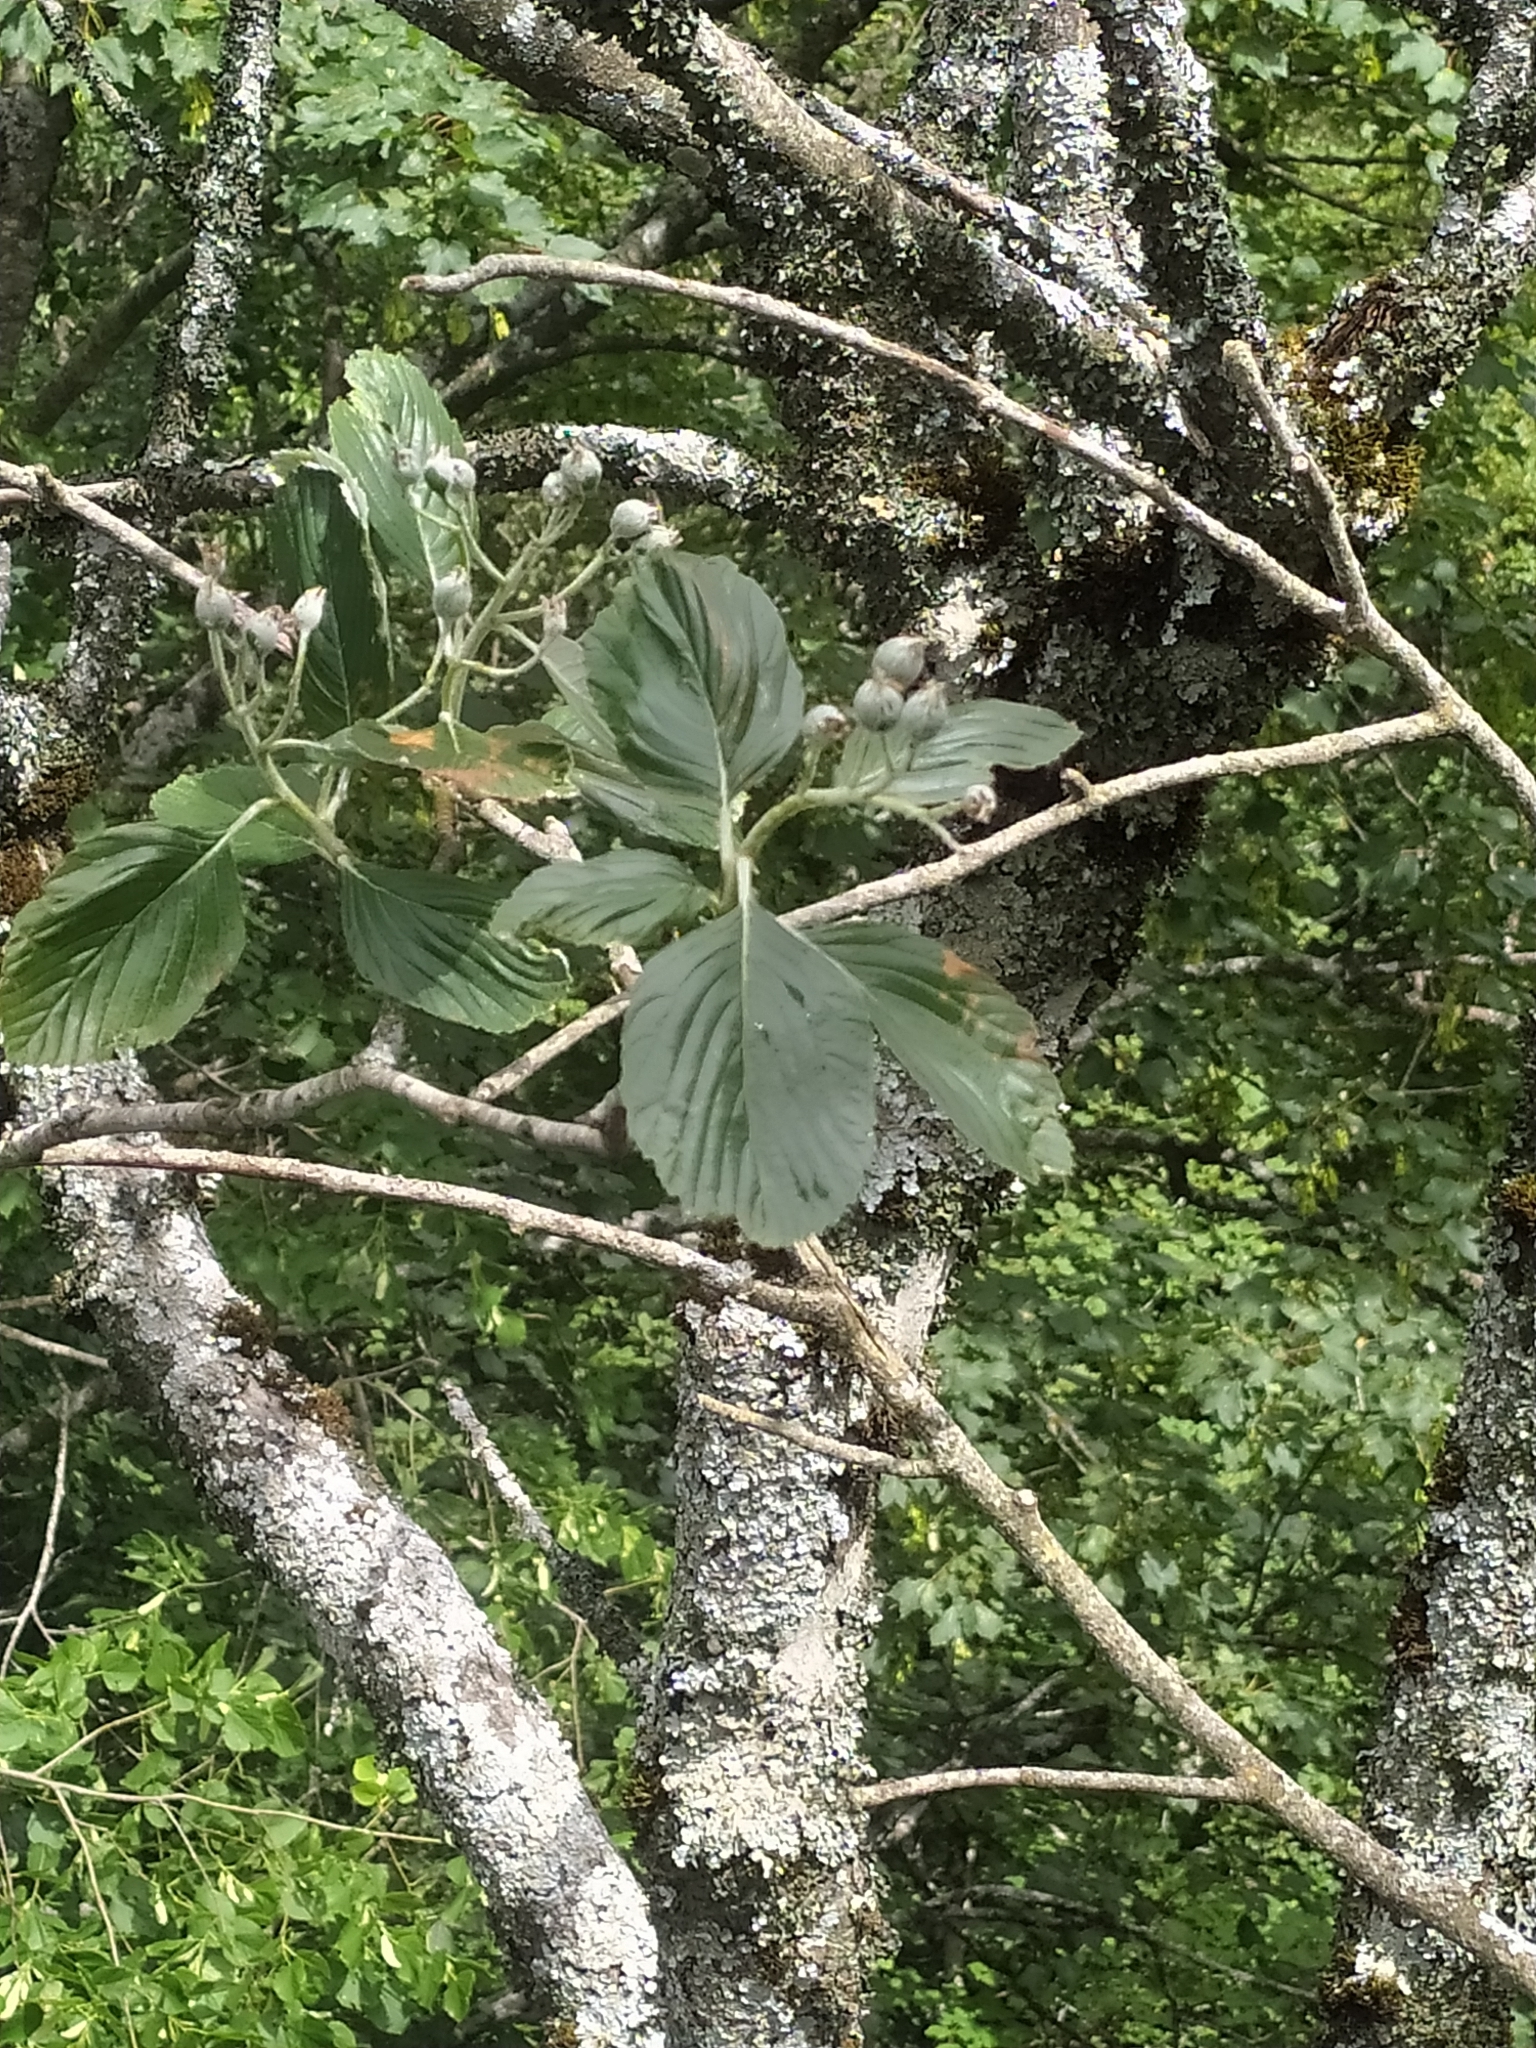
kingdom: Plantae
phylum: Tracheophyta
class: Magnoliopsida
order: Rosales
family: Rosaceae
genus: Aria
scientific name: Aria edulis
